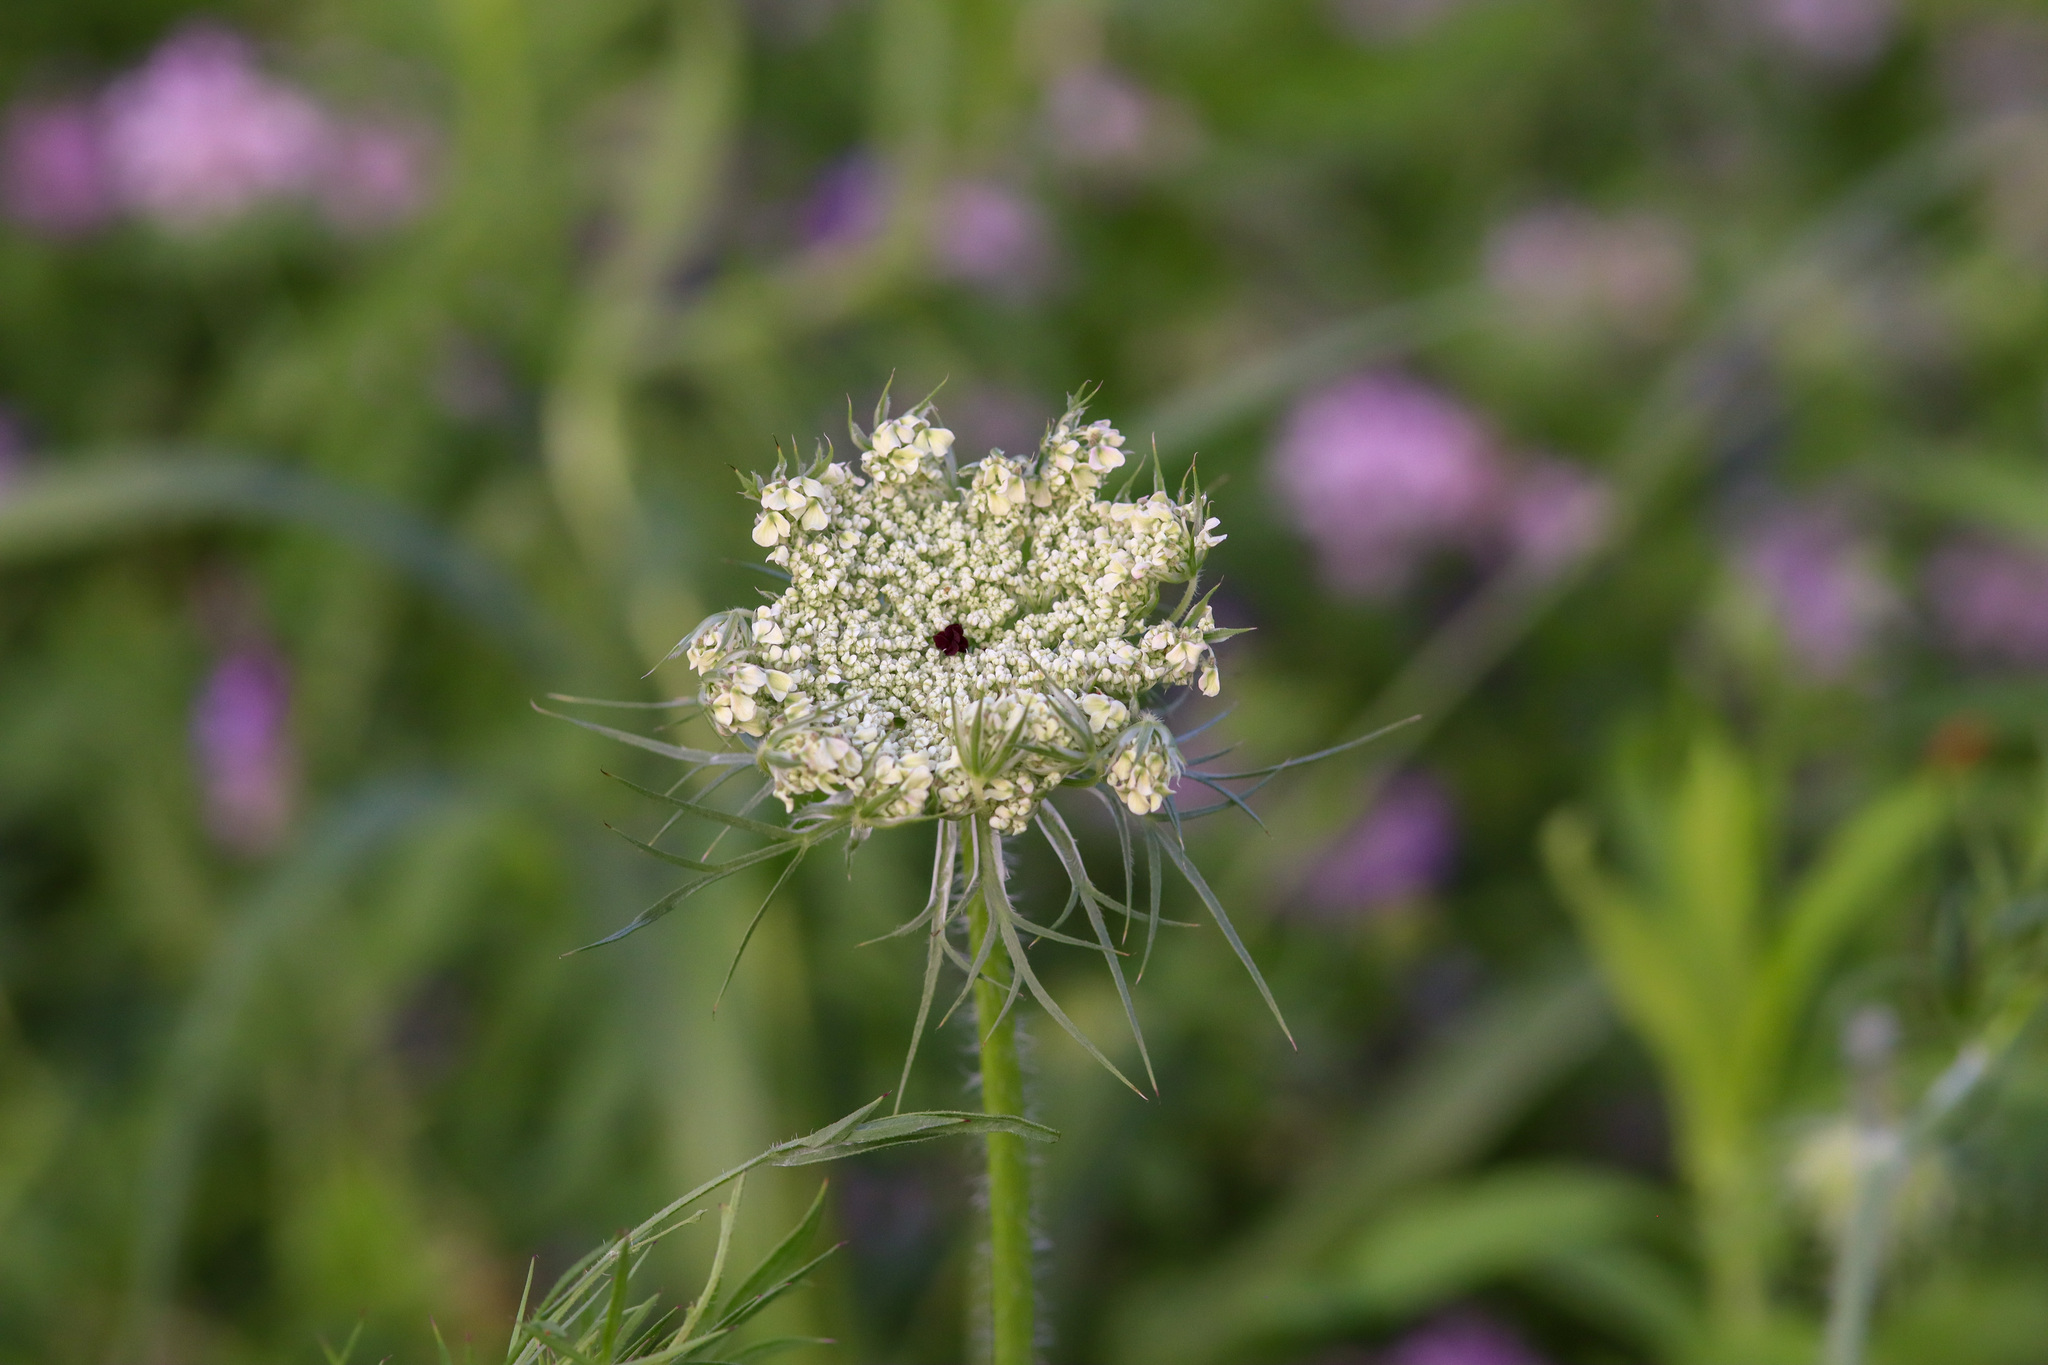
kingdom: Plantae
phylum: Tracheophyta
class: Magnoliopsida
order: Apiales
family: Apiaceae
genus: Daucus
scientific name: Daucus carota
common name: Wild carrot
